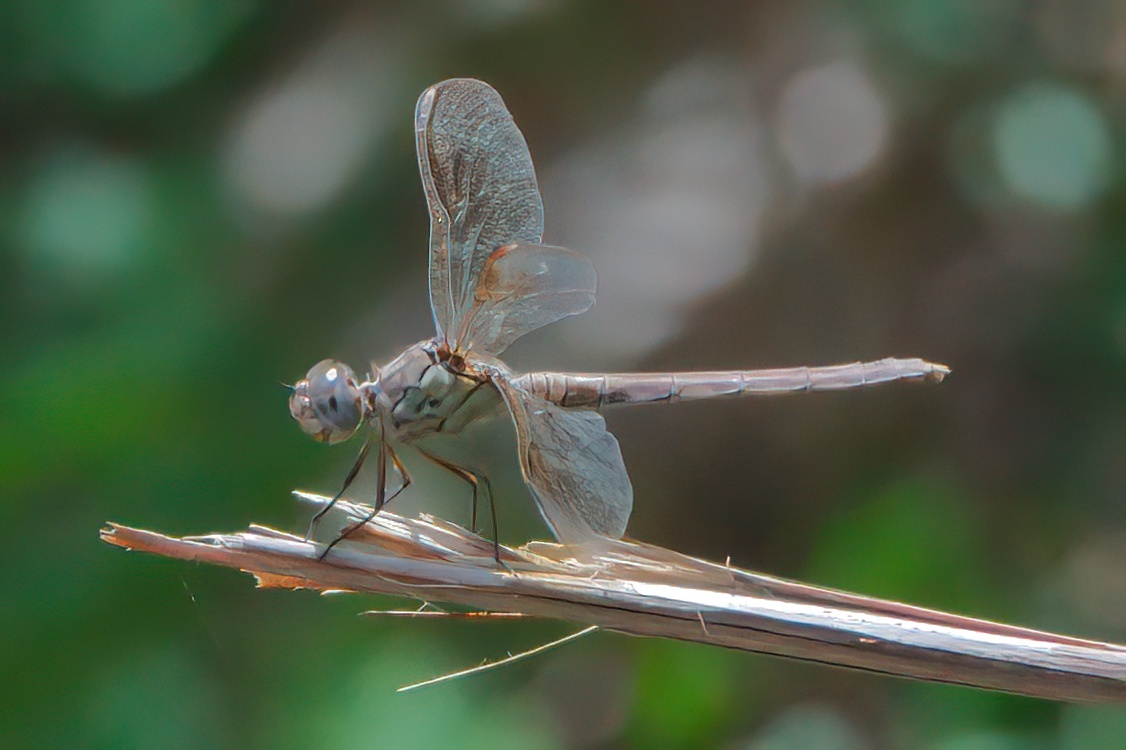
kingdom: Animalia
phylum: Arthropoda
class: Insecta
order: Odonata
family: Libellulidae
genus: Erythrodiplax
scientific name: Erythrodiplax umbrata
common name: Band-winged dragonlet
